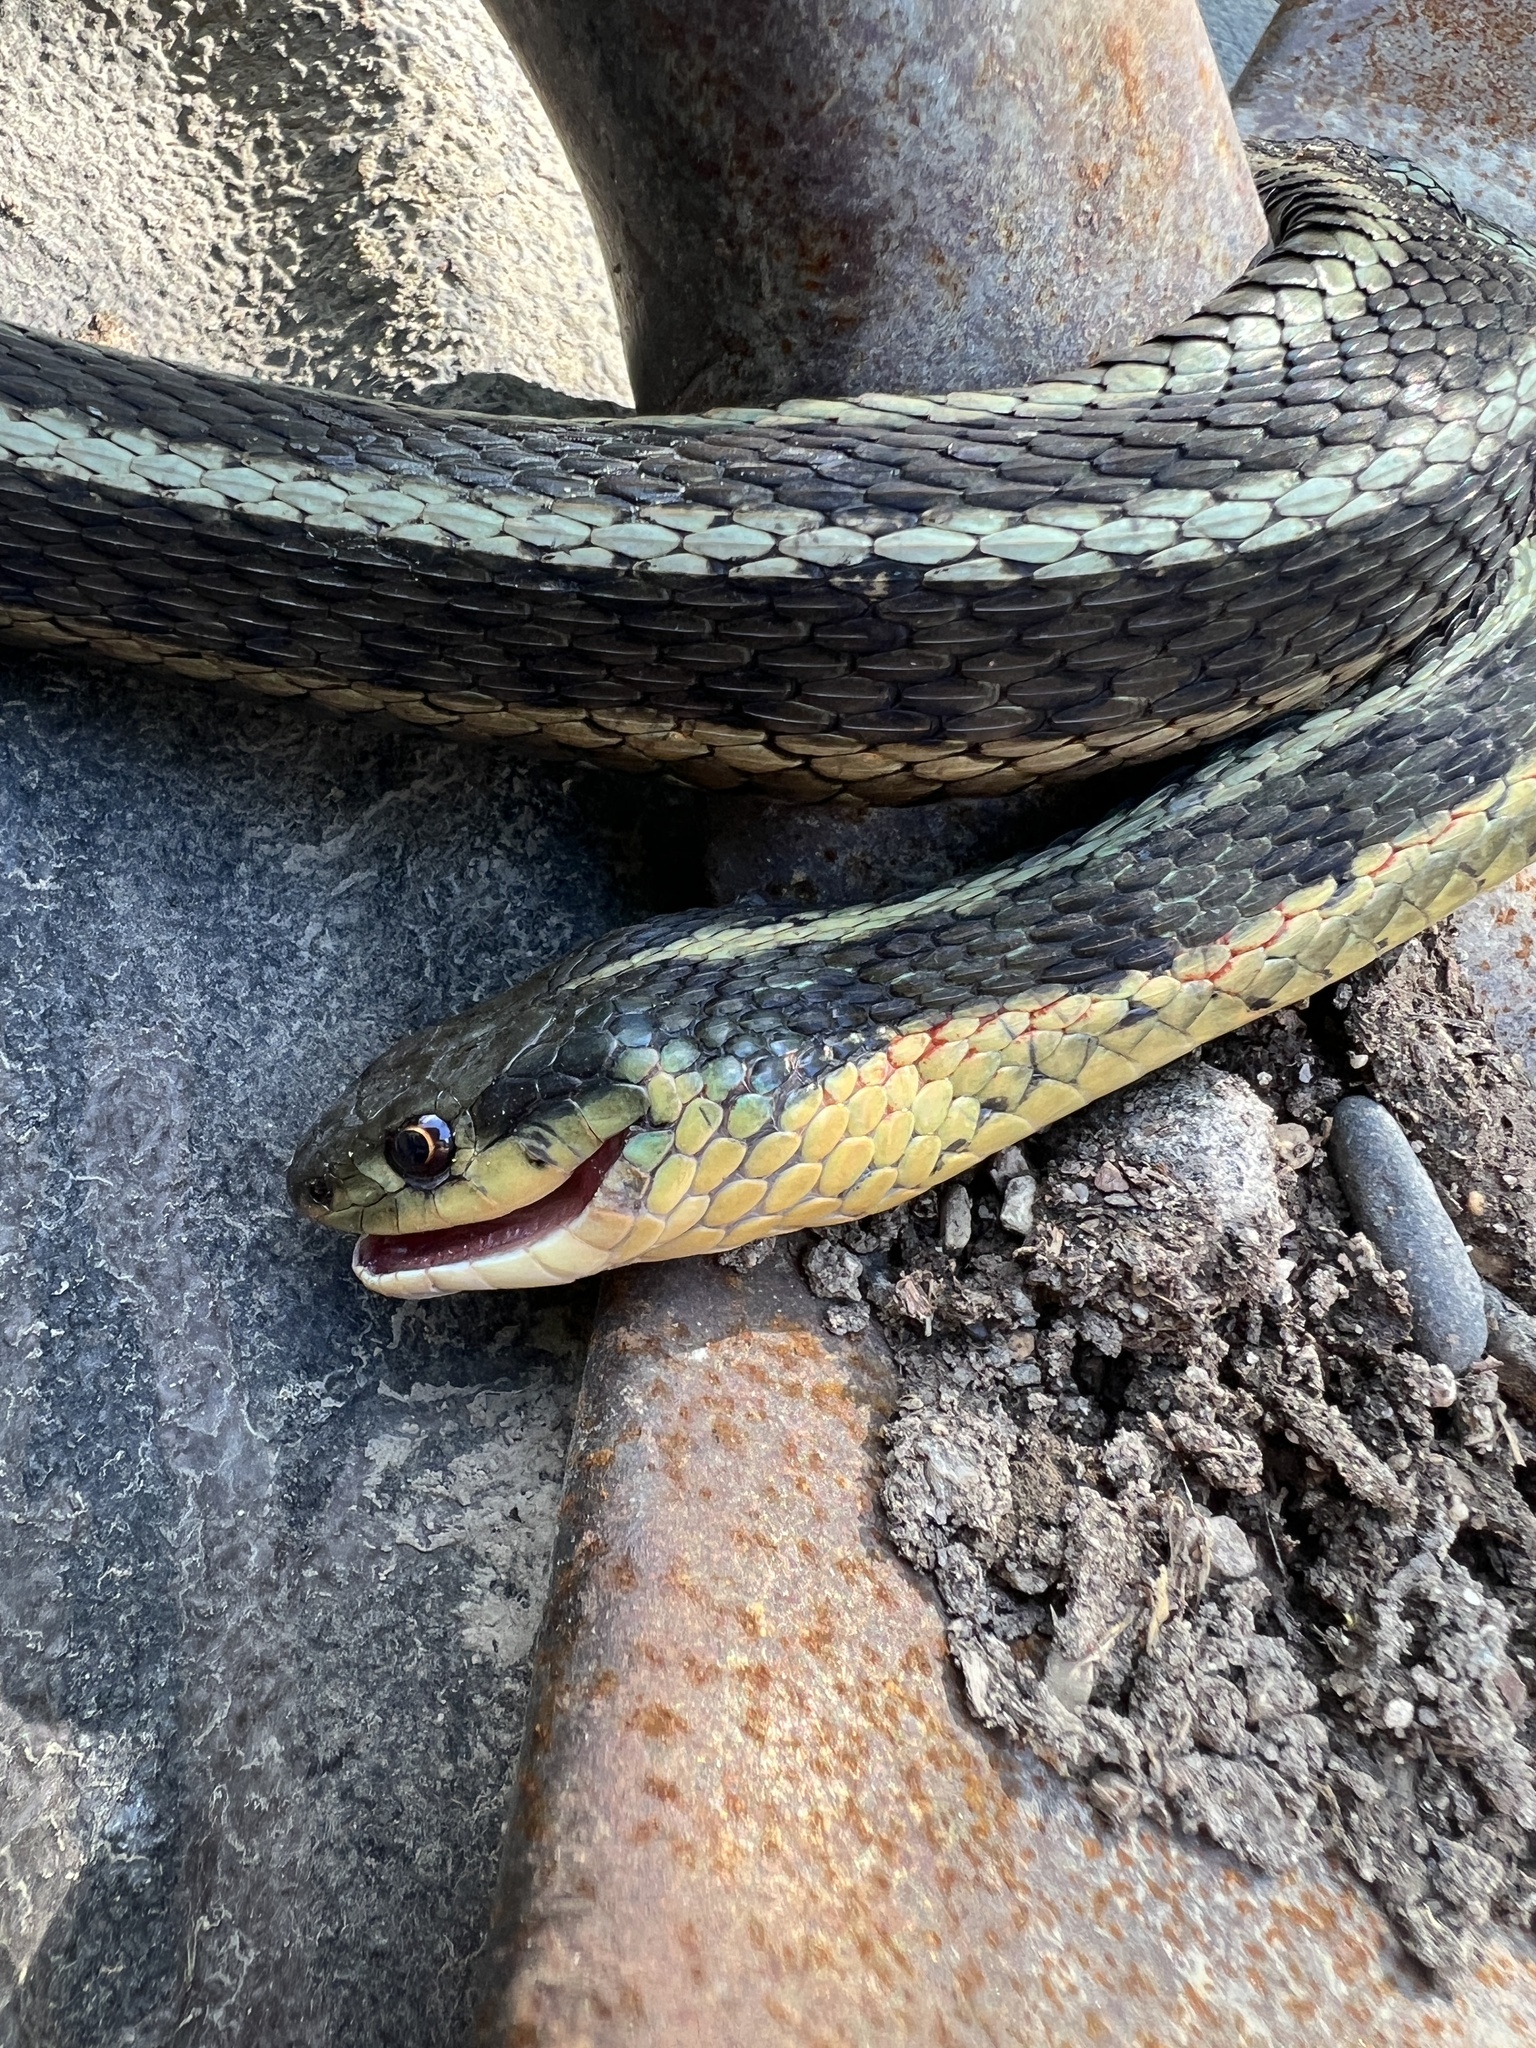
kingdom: Animalia
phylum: Chordata
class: Squamata
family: Colubridae
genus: Thamnophis
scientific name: Thamnophis sirtalis
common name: Common garter snake
